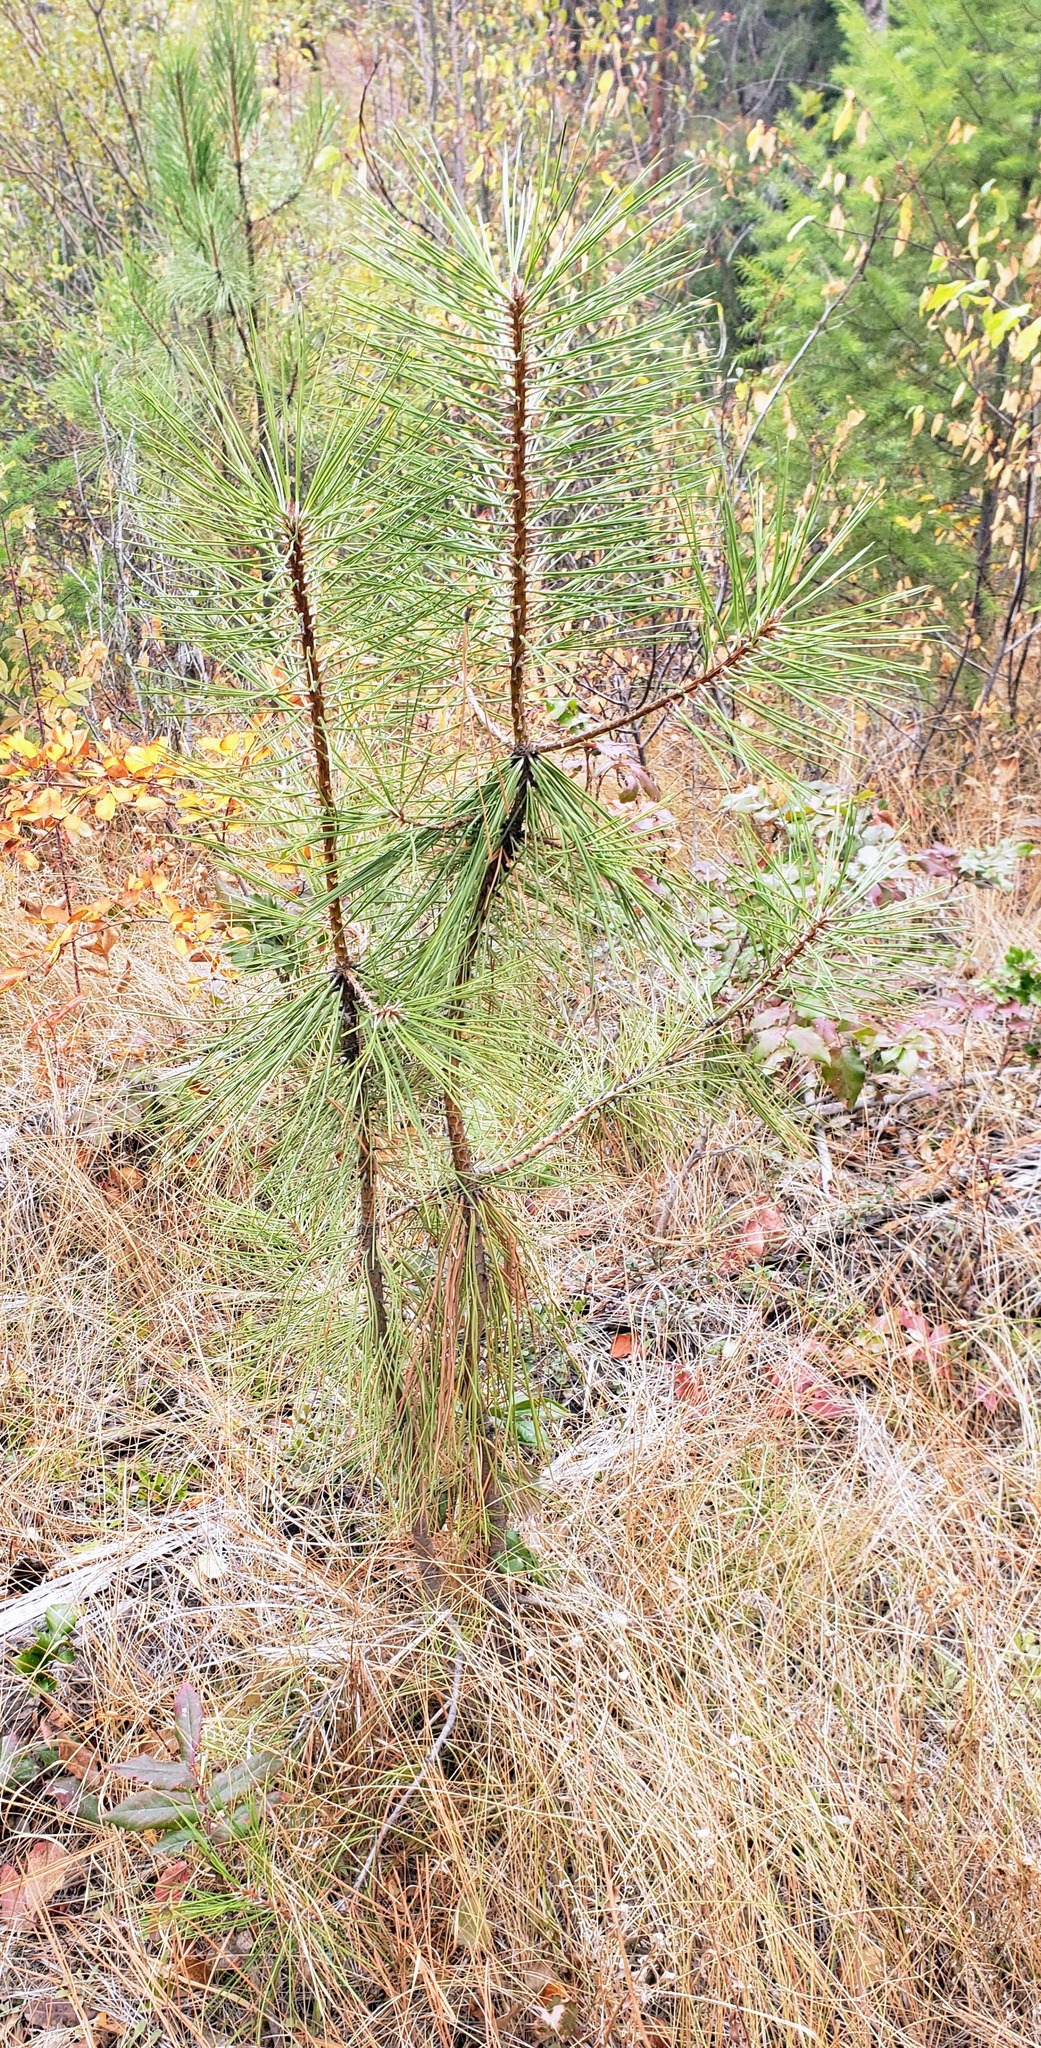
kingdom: Plantae
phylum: Tracheophyta
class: Pinopsida
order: Pinales
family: Pinaceae
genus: Pinus
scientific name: Pinus ponderosa
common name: Western yellow-pine
